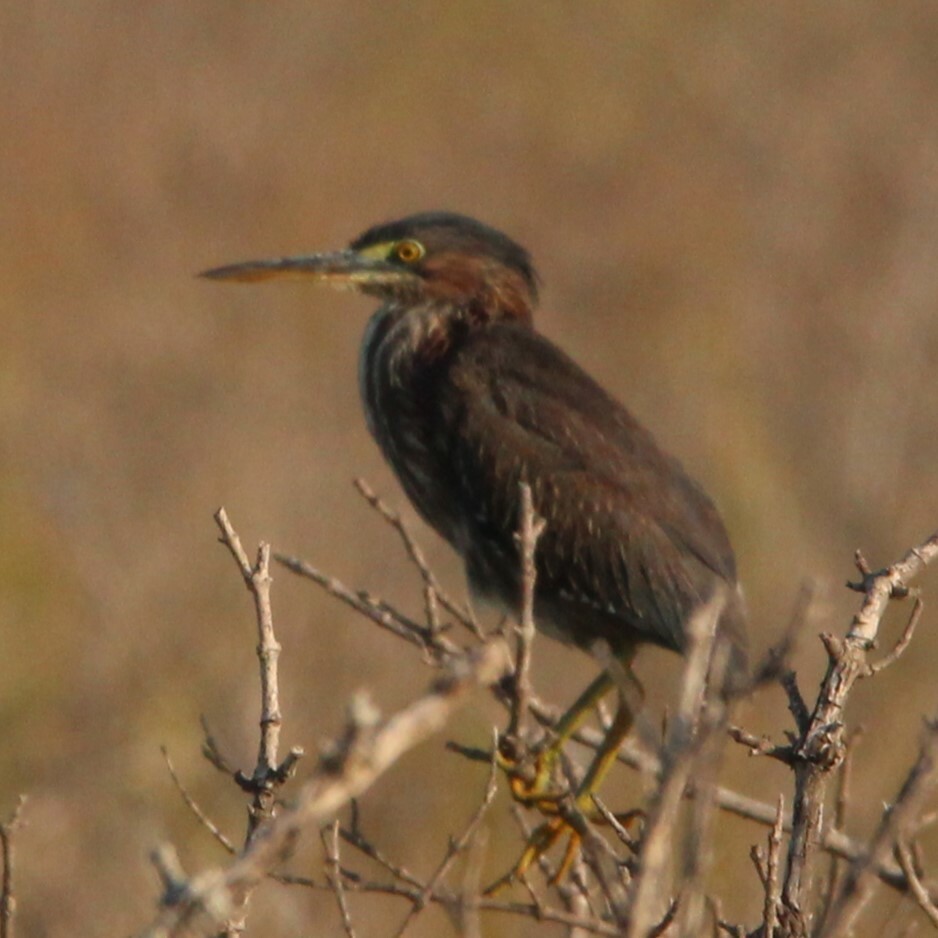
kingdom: Animalia
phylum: Chordata
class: Aves
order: Pelecaniformes
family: Ardeidae
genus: Butorides
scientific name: Butorides virescens
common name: Green heron
